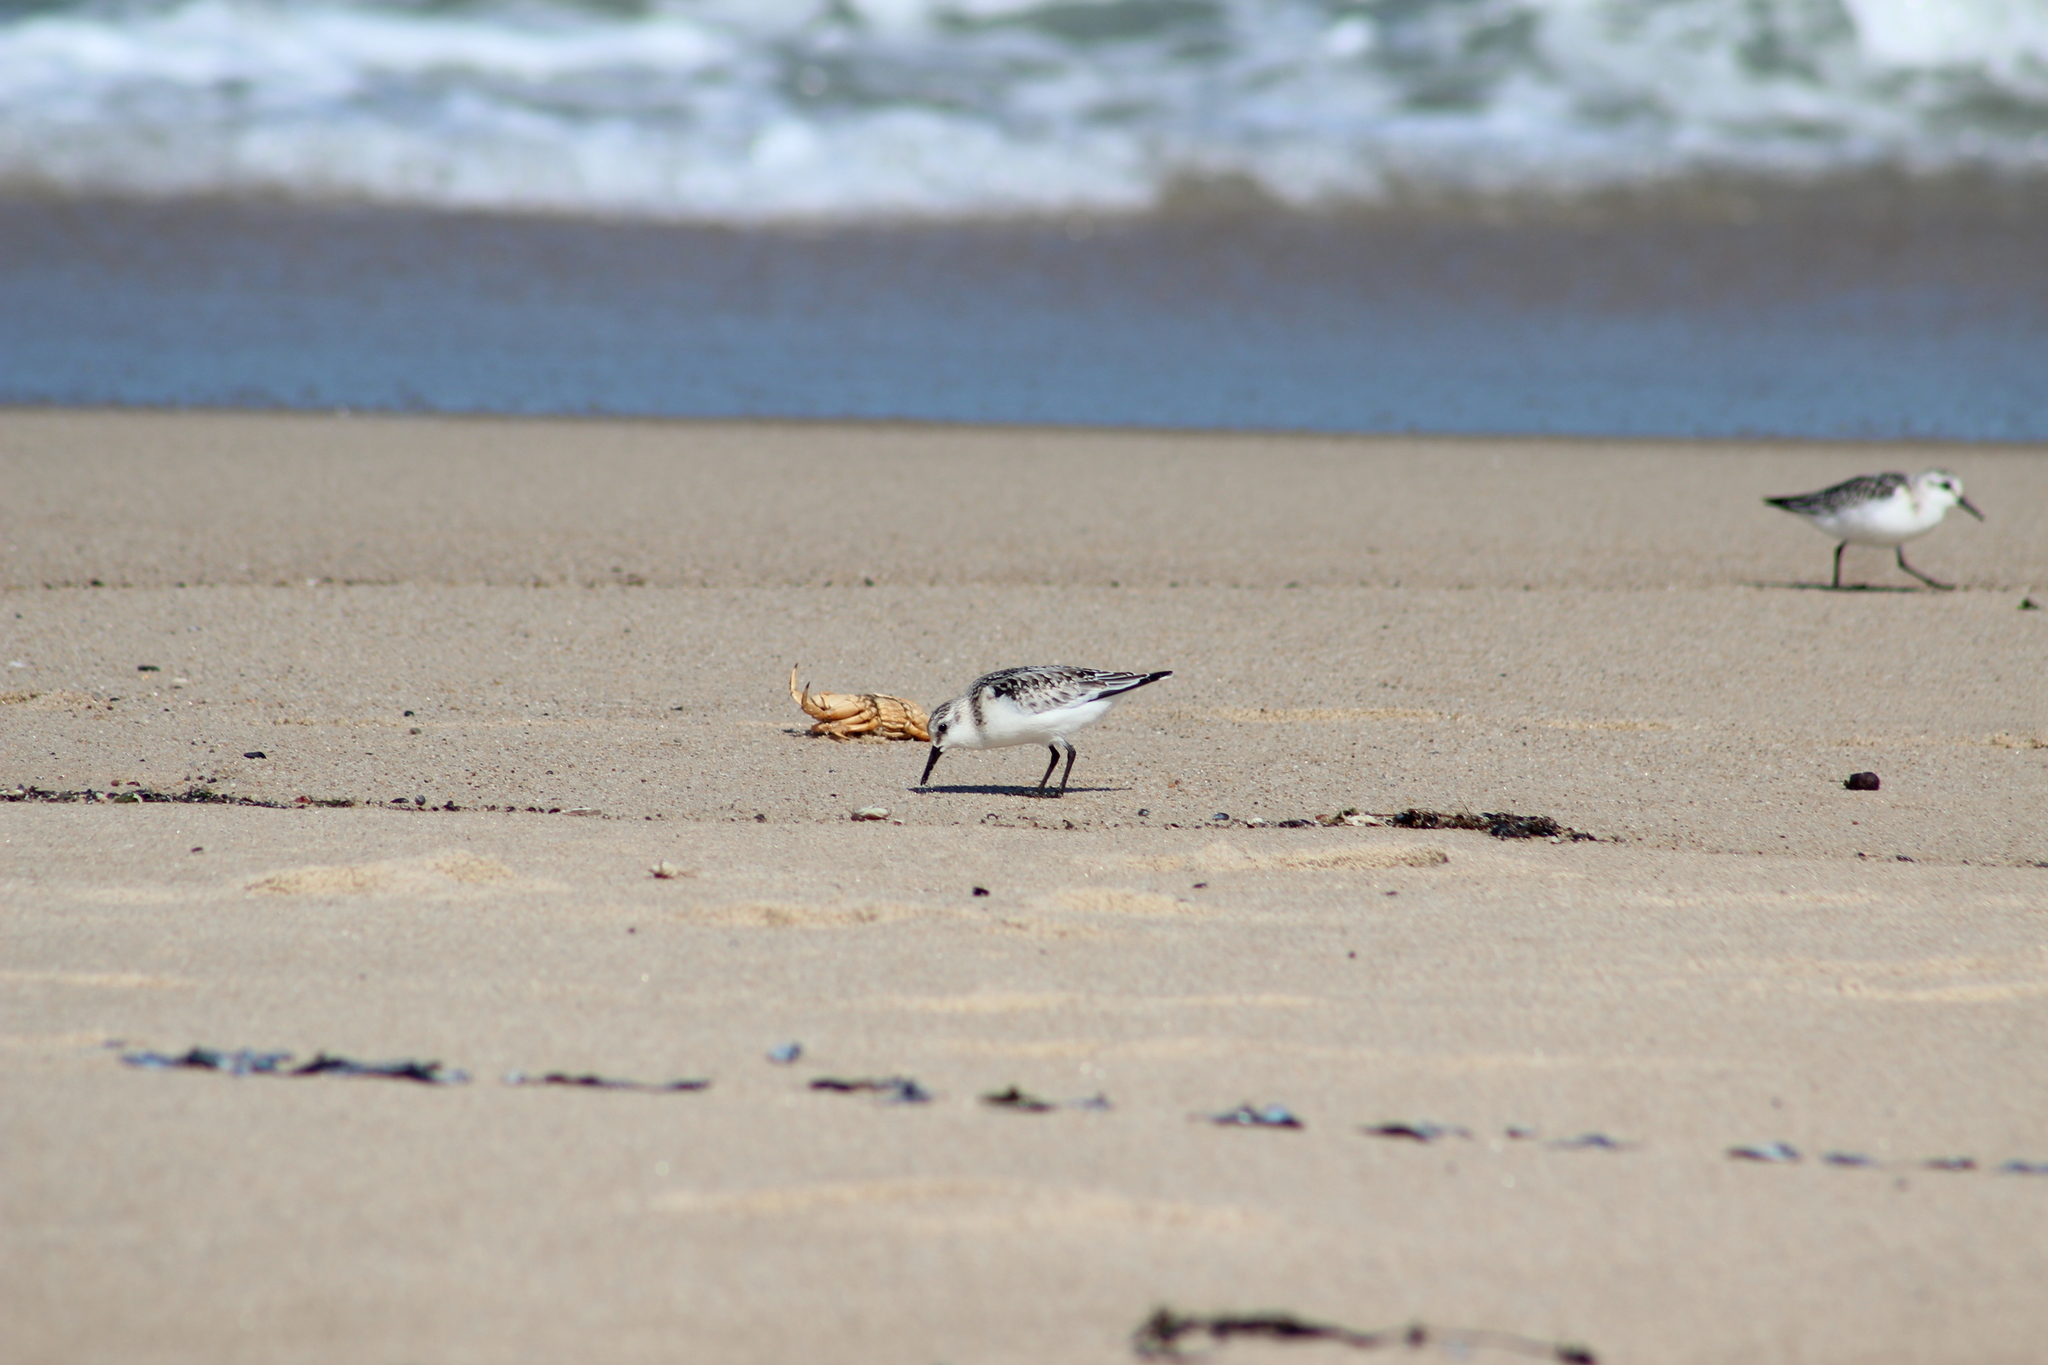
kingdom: Animalia
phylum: Chordata
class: Aves
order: Charadriiformes
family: Scolopacidae
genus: Calidris
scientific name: Calidris alba
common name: Sanderling
